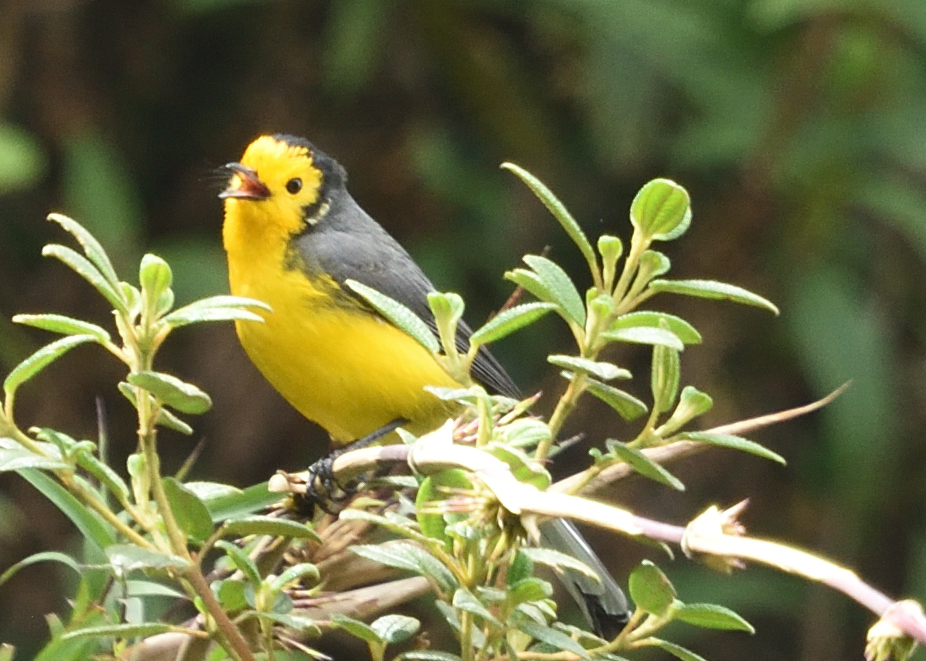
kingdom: Animalia
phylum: Chordata
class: Aves
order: Passeriformes
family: Parulidae
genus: Myioborus
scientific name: Myioborus ornatus
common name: Golden-fronted whitestart
